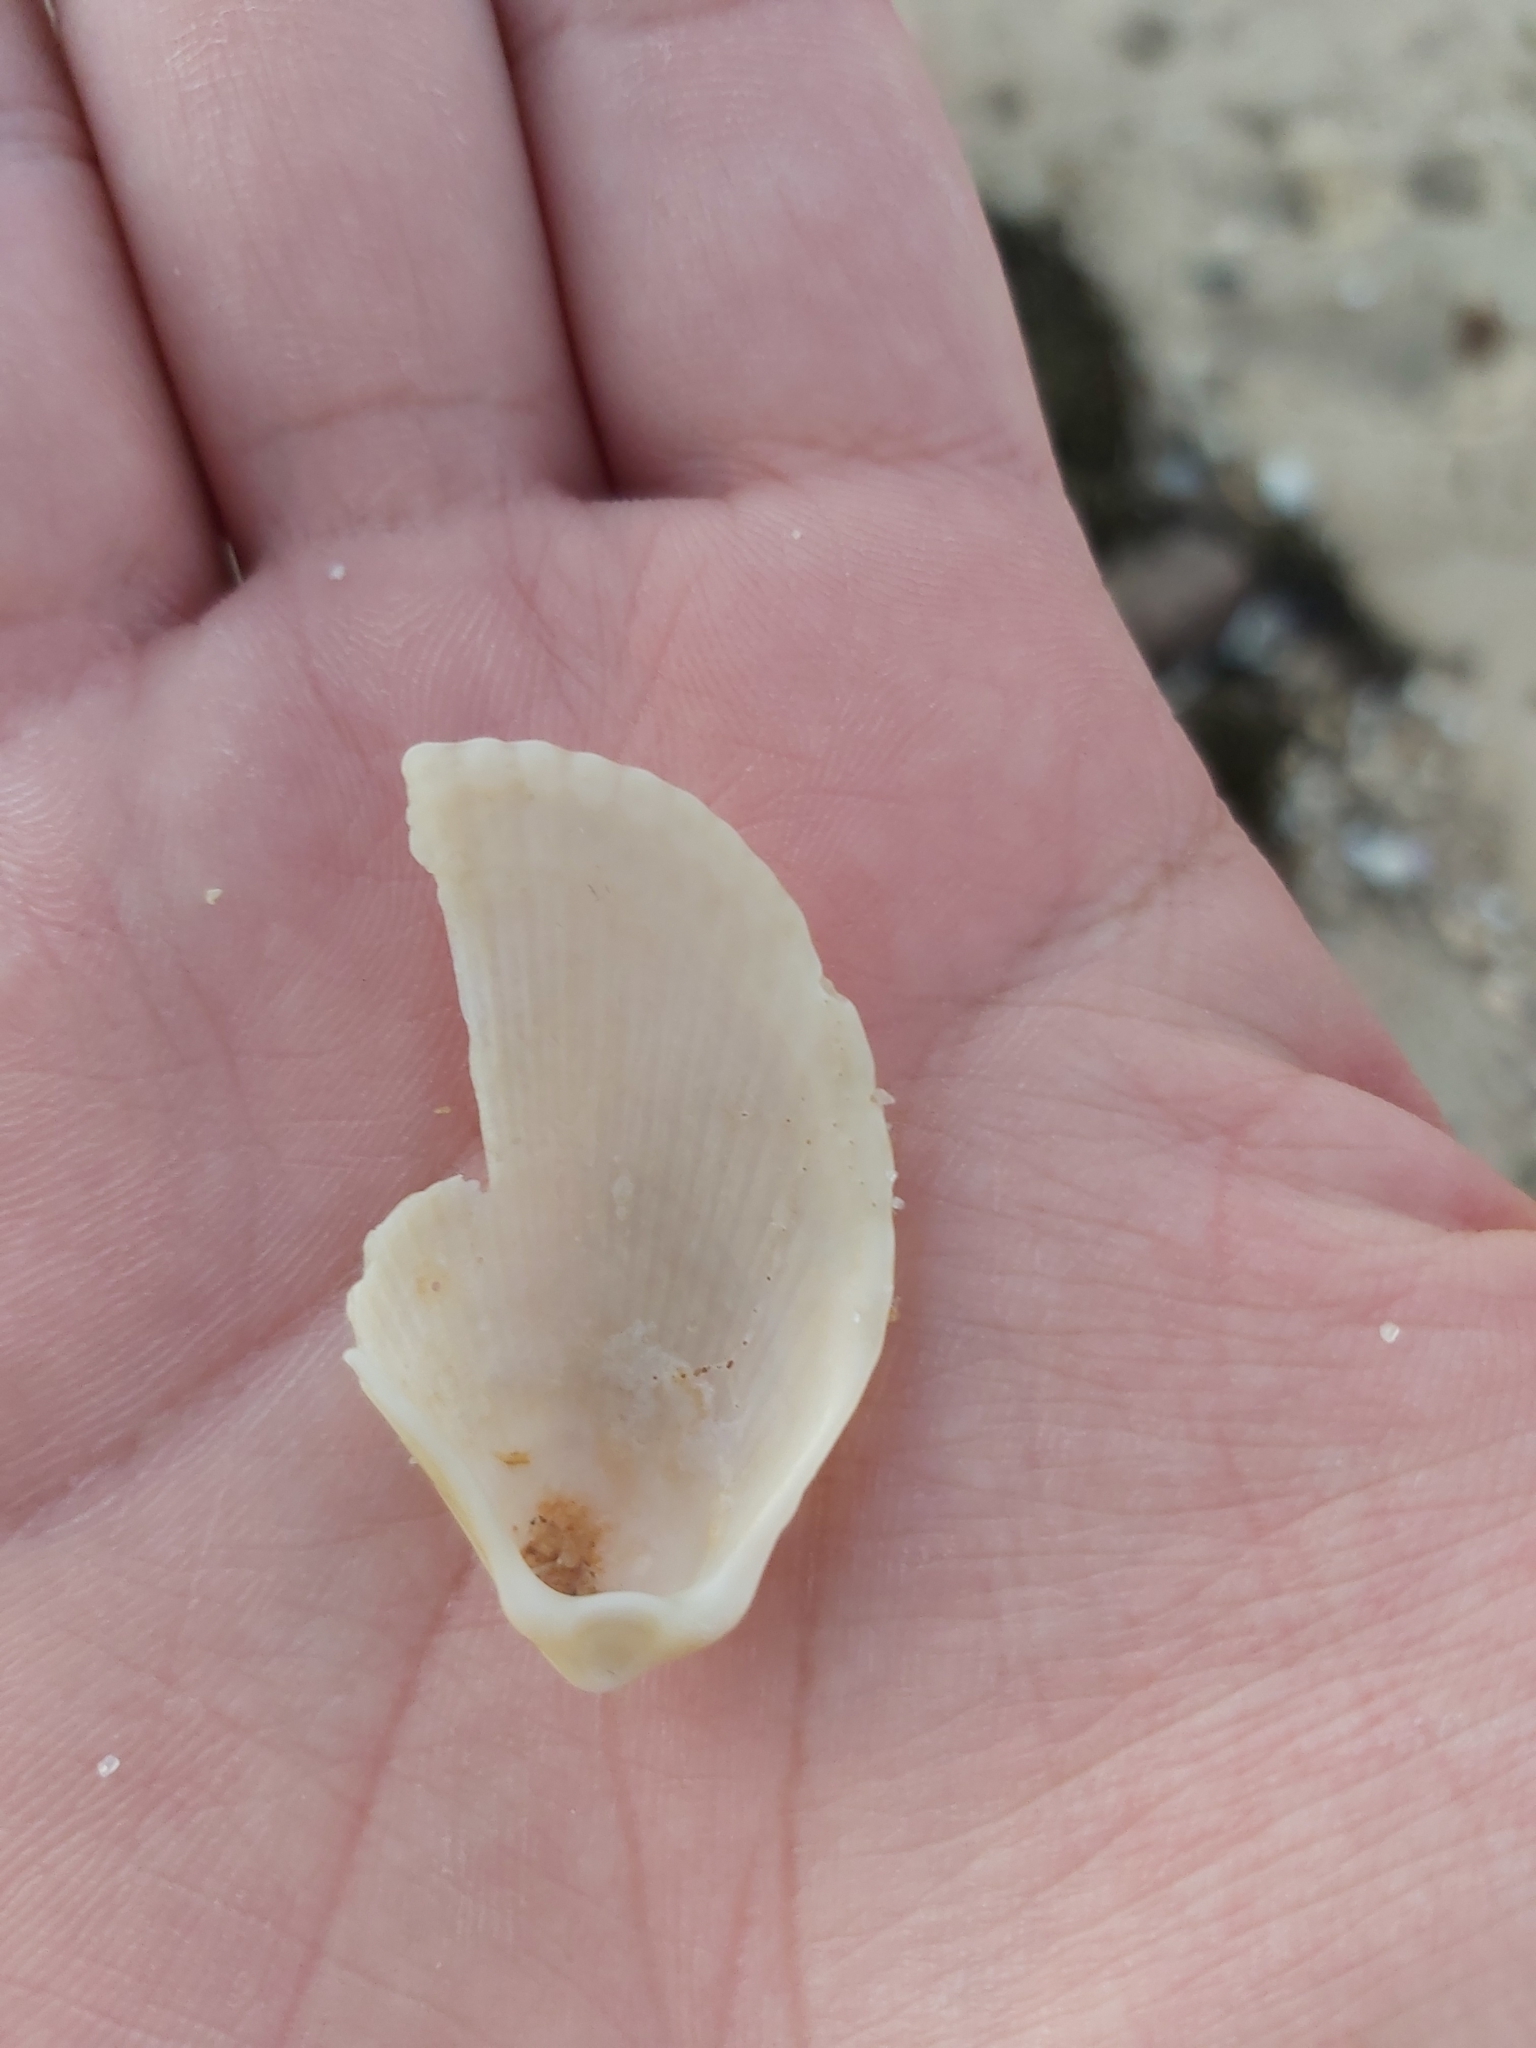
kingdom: Animalia
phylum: Mollusca
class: Bivalvia
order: Limida
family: Limidae
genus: Lima
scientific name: Lima nimbifer
